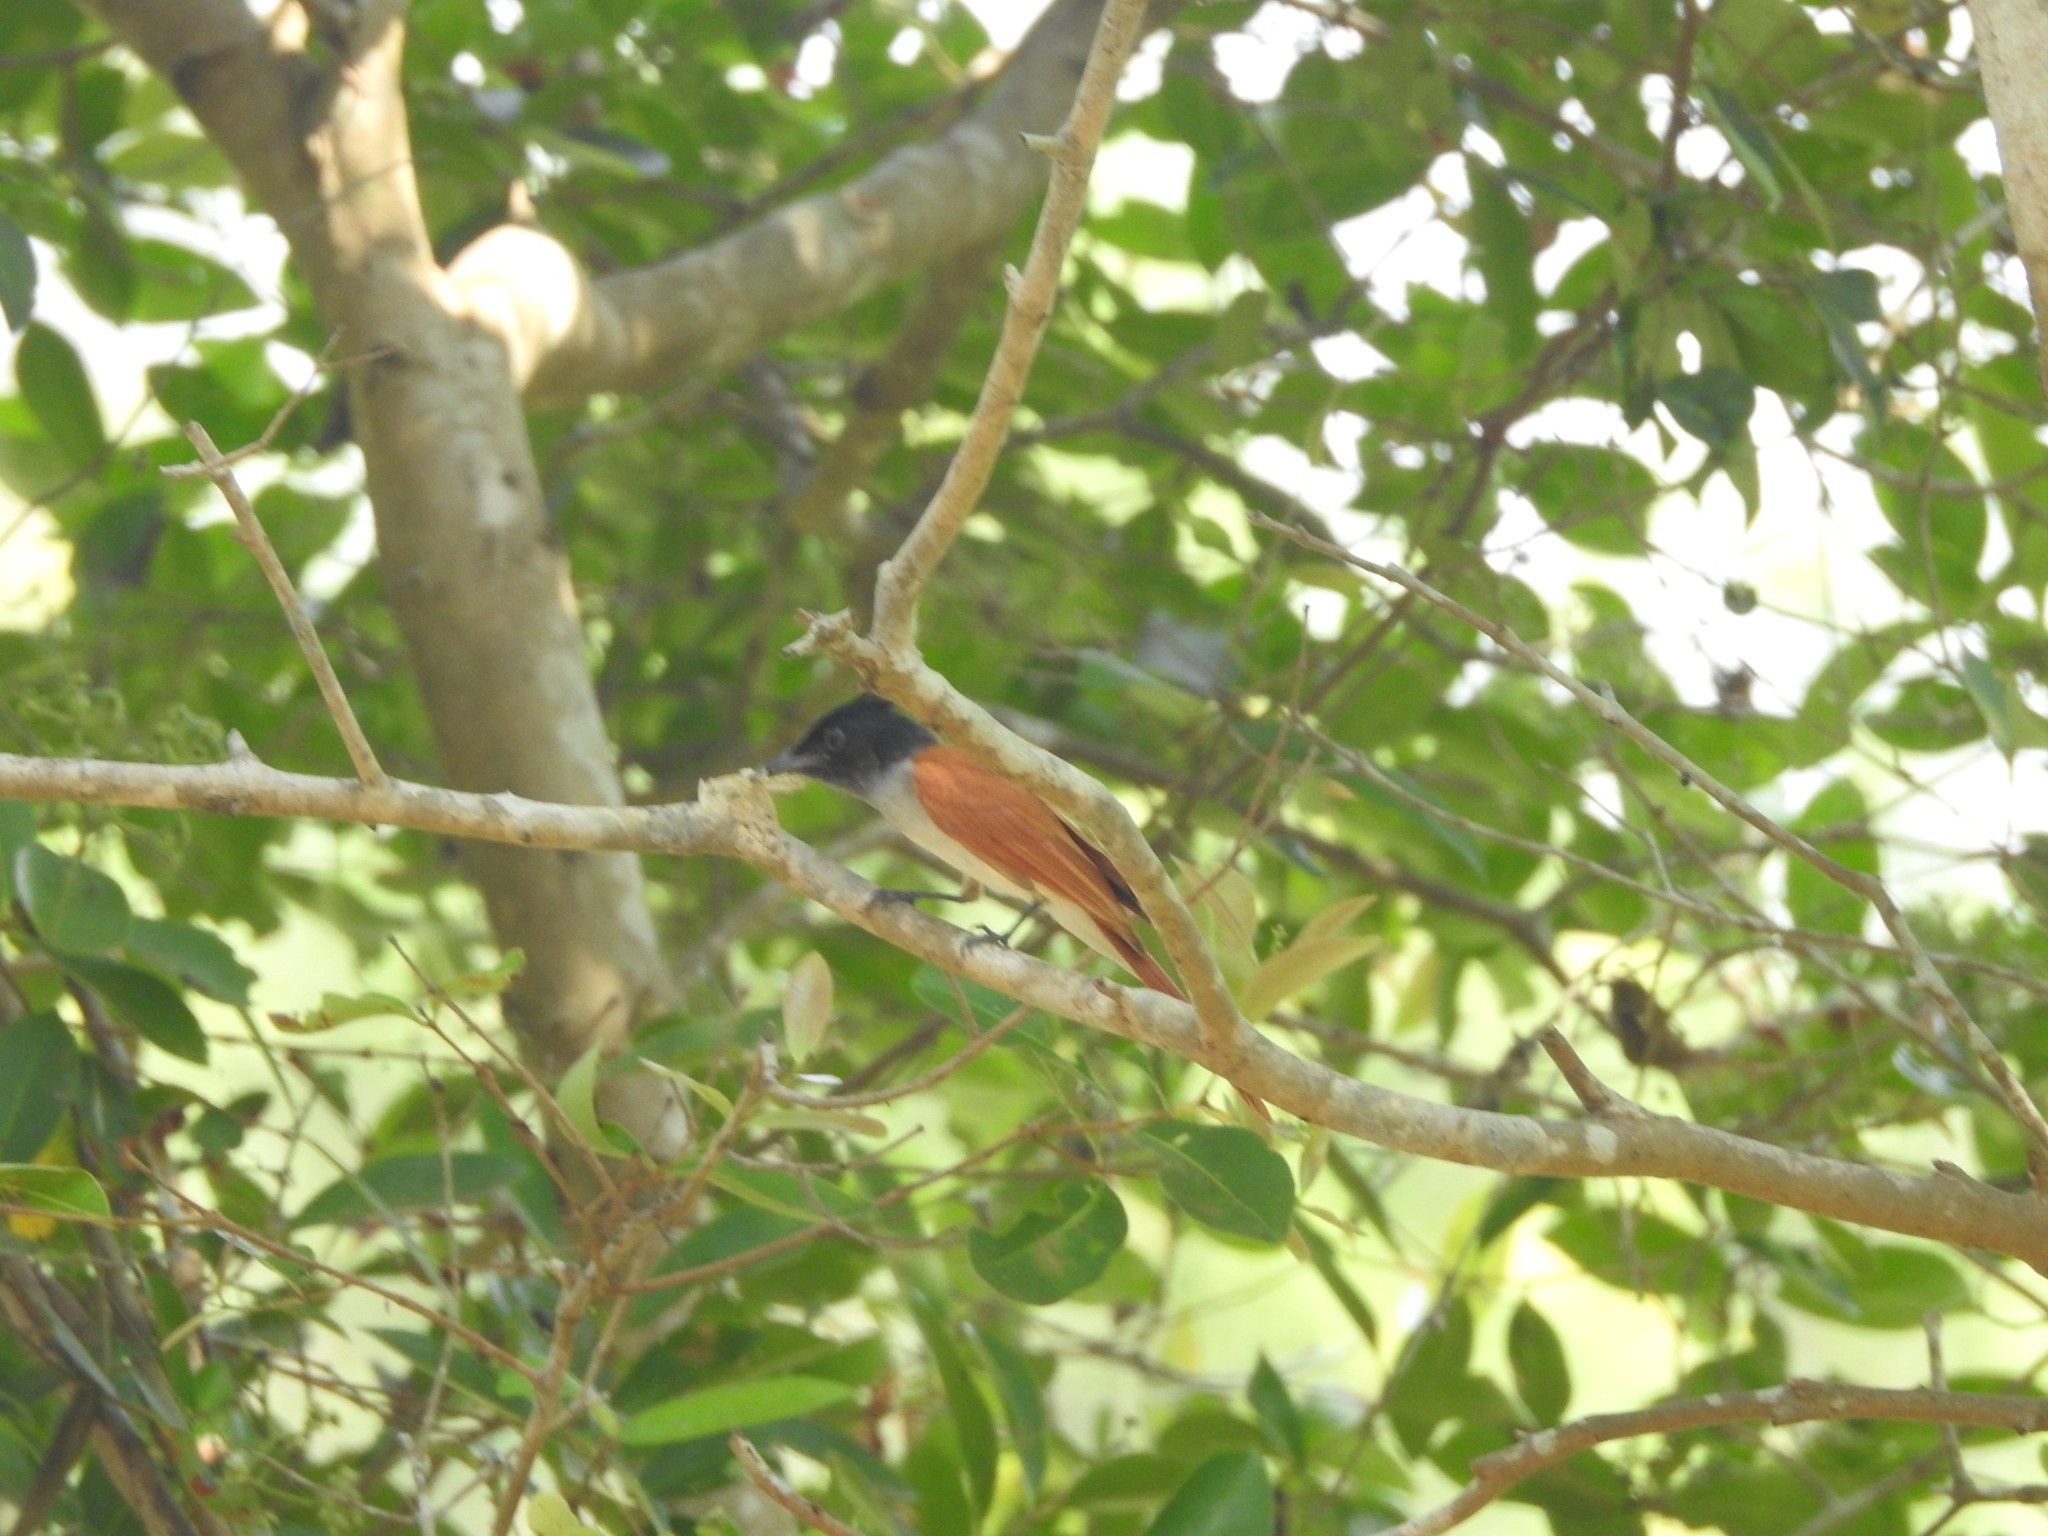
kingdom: Animalia
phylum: Chordata
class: Aves
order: Passeriformes
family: Monarchidae
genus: Terpsiphone
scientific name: Terpsiphone paradisi
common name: Indian paradise flycatcher
